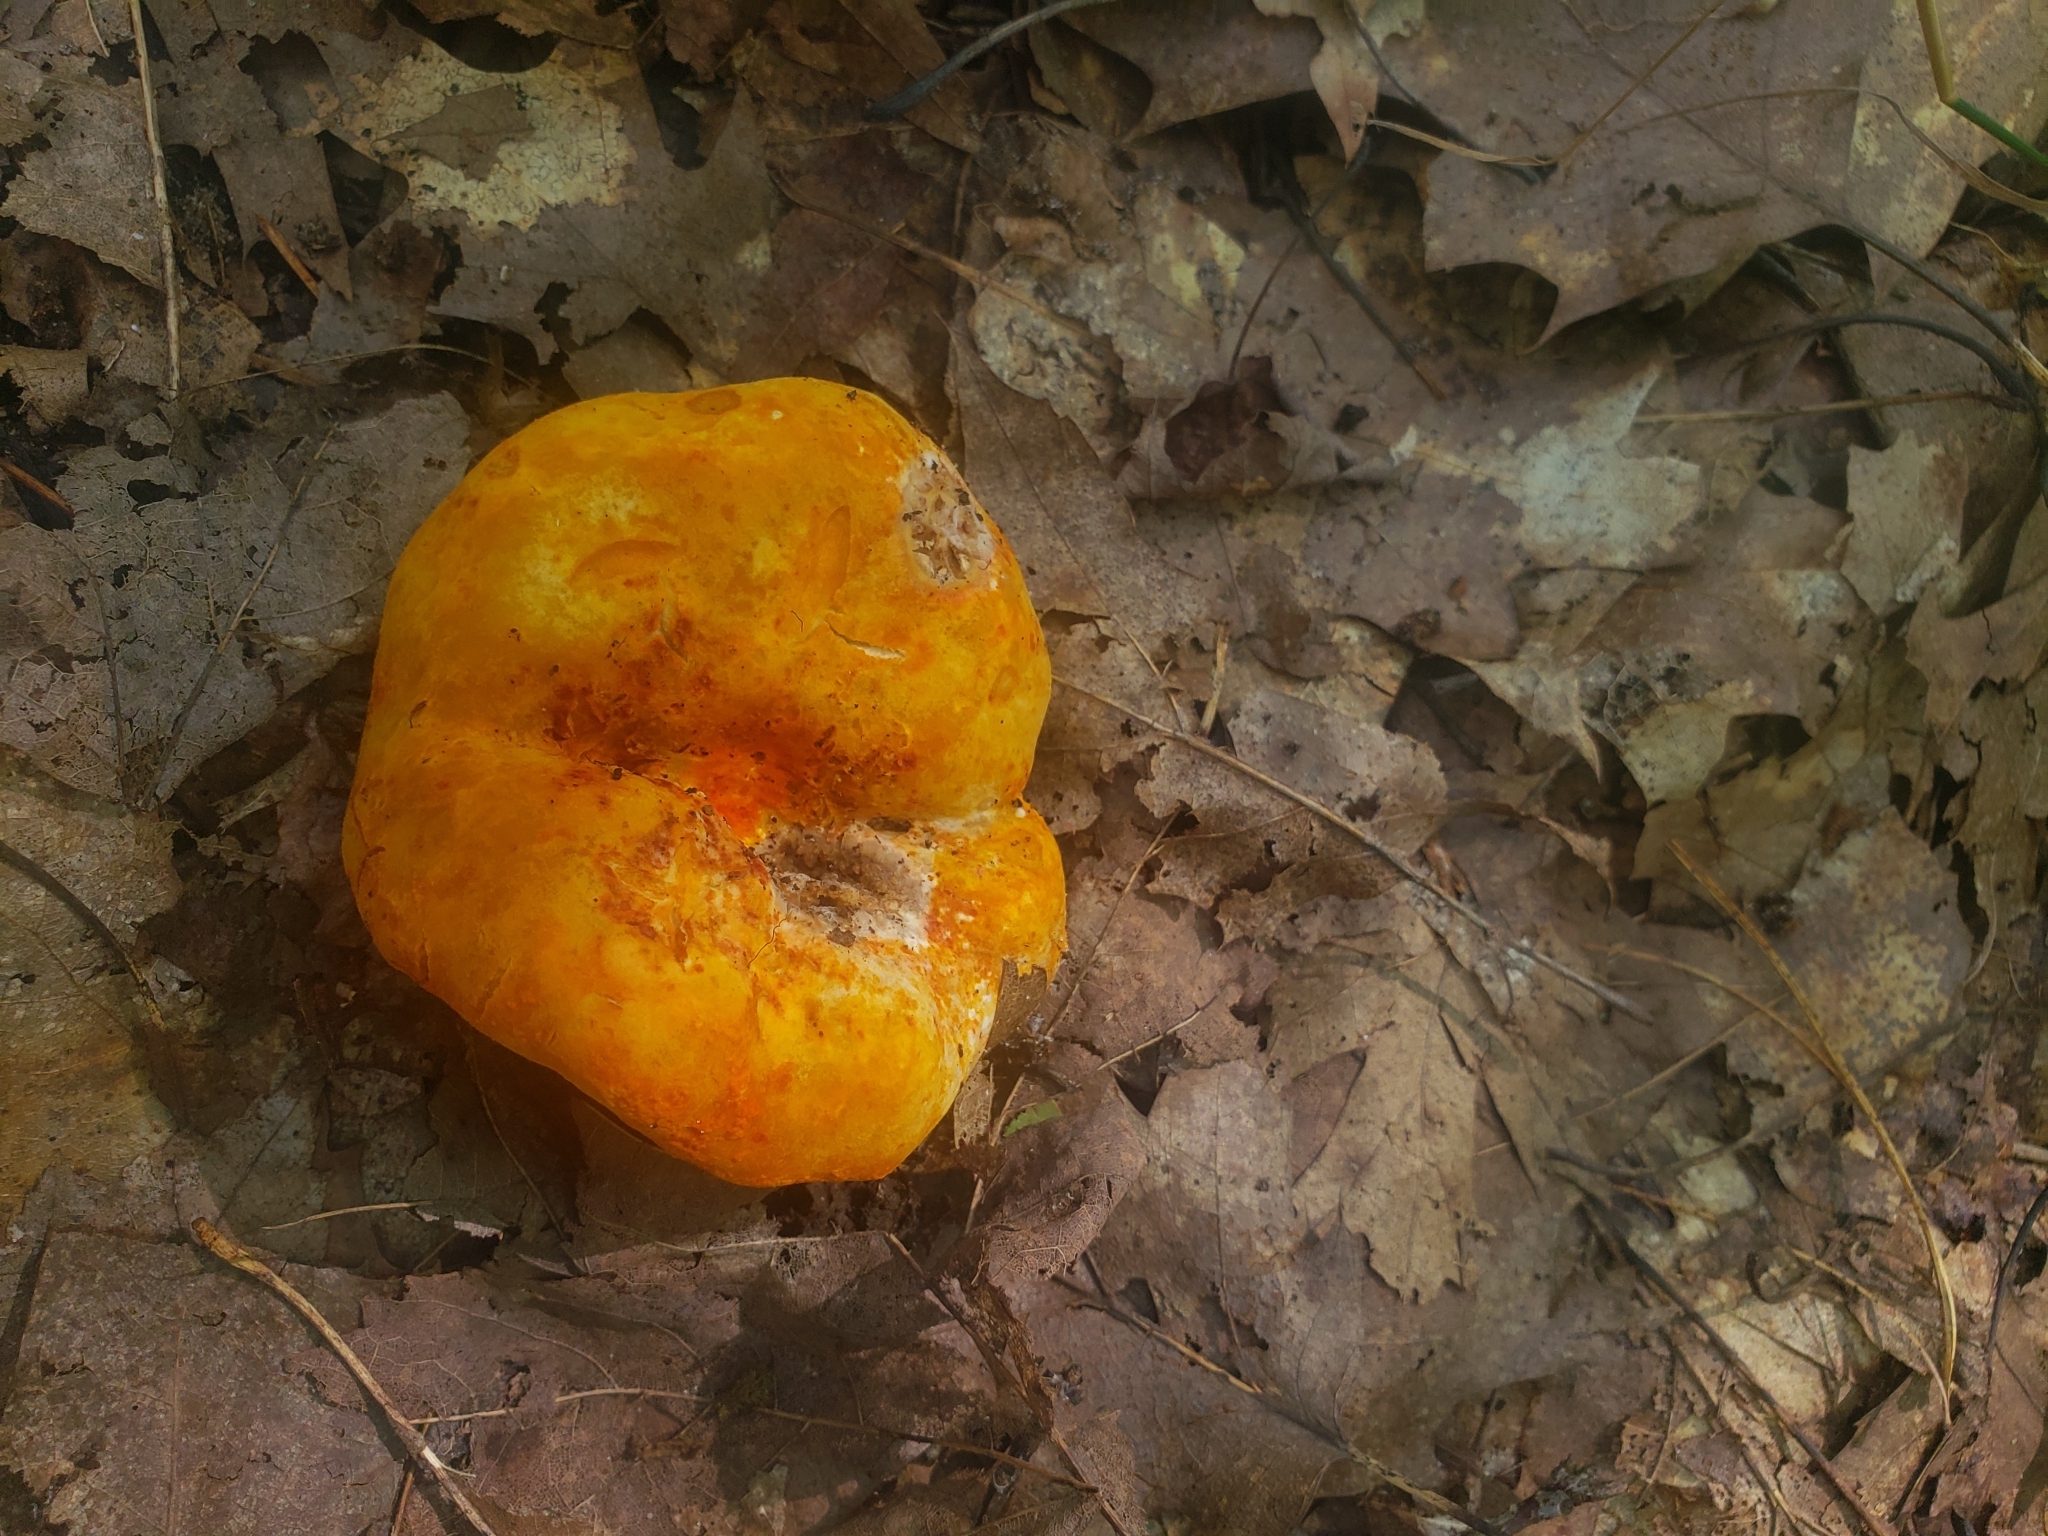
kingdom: Fungi
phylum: Ascomycota
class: Sordariomycetes
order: Hypocreales
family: Hypocreaceae
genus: Hypomyces
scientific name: Hypomyces lactifluorum
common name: Lobster mushroom
